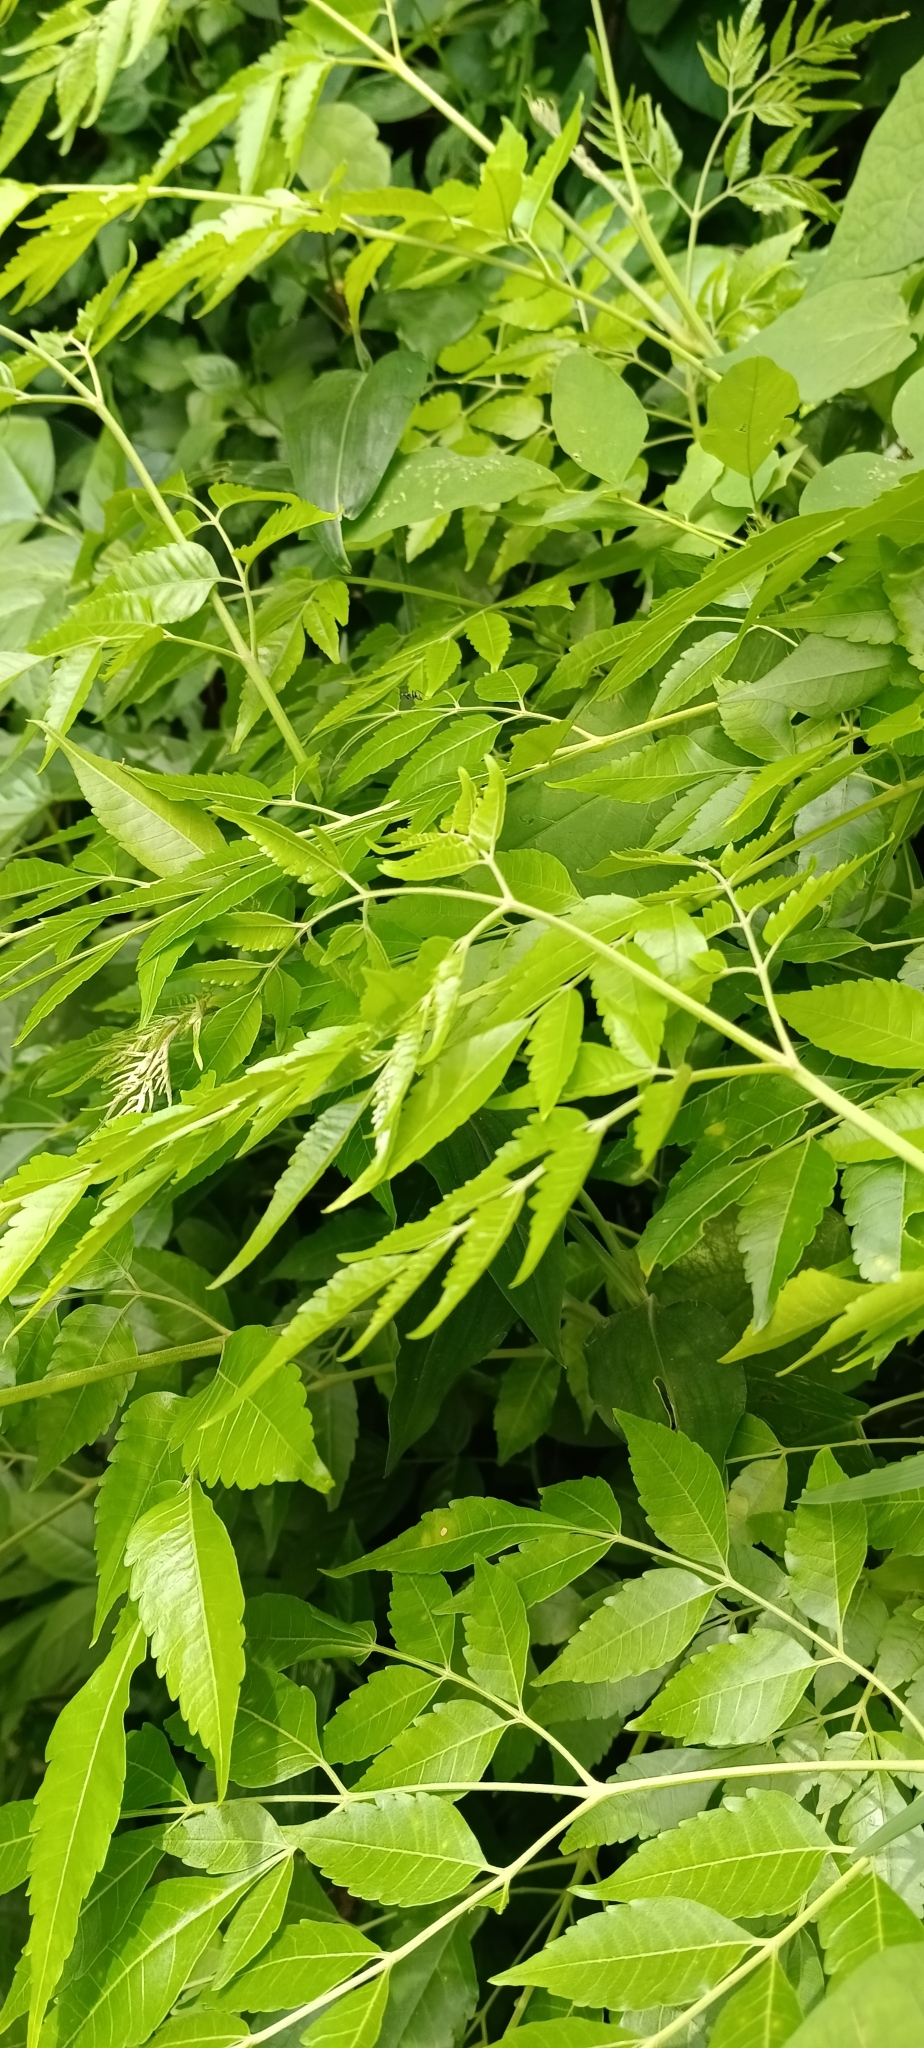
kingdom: Plantae
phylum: Tracheophyta
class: Magnoliopsida
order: Sapindales
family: Meliaceae
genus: Melia
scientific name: Melia azedarach
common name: Chinaberrytree
